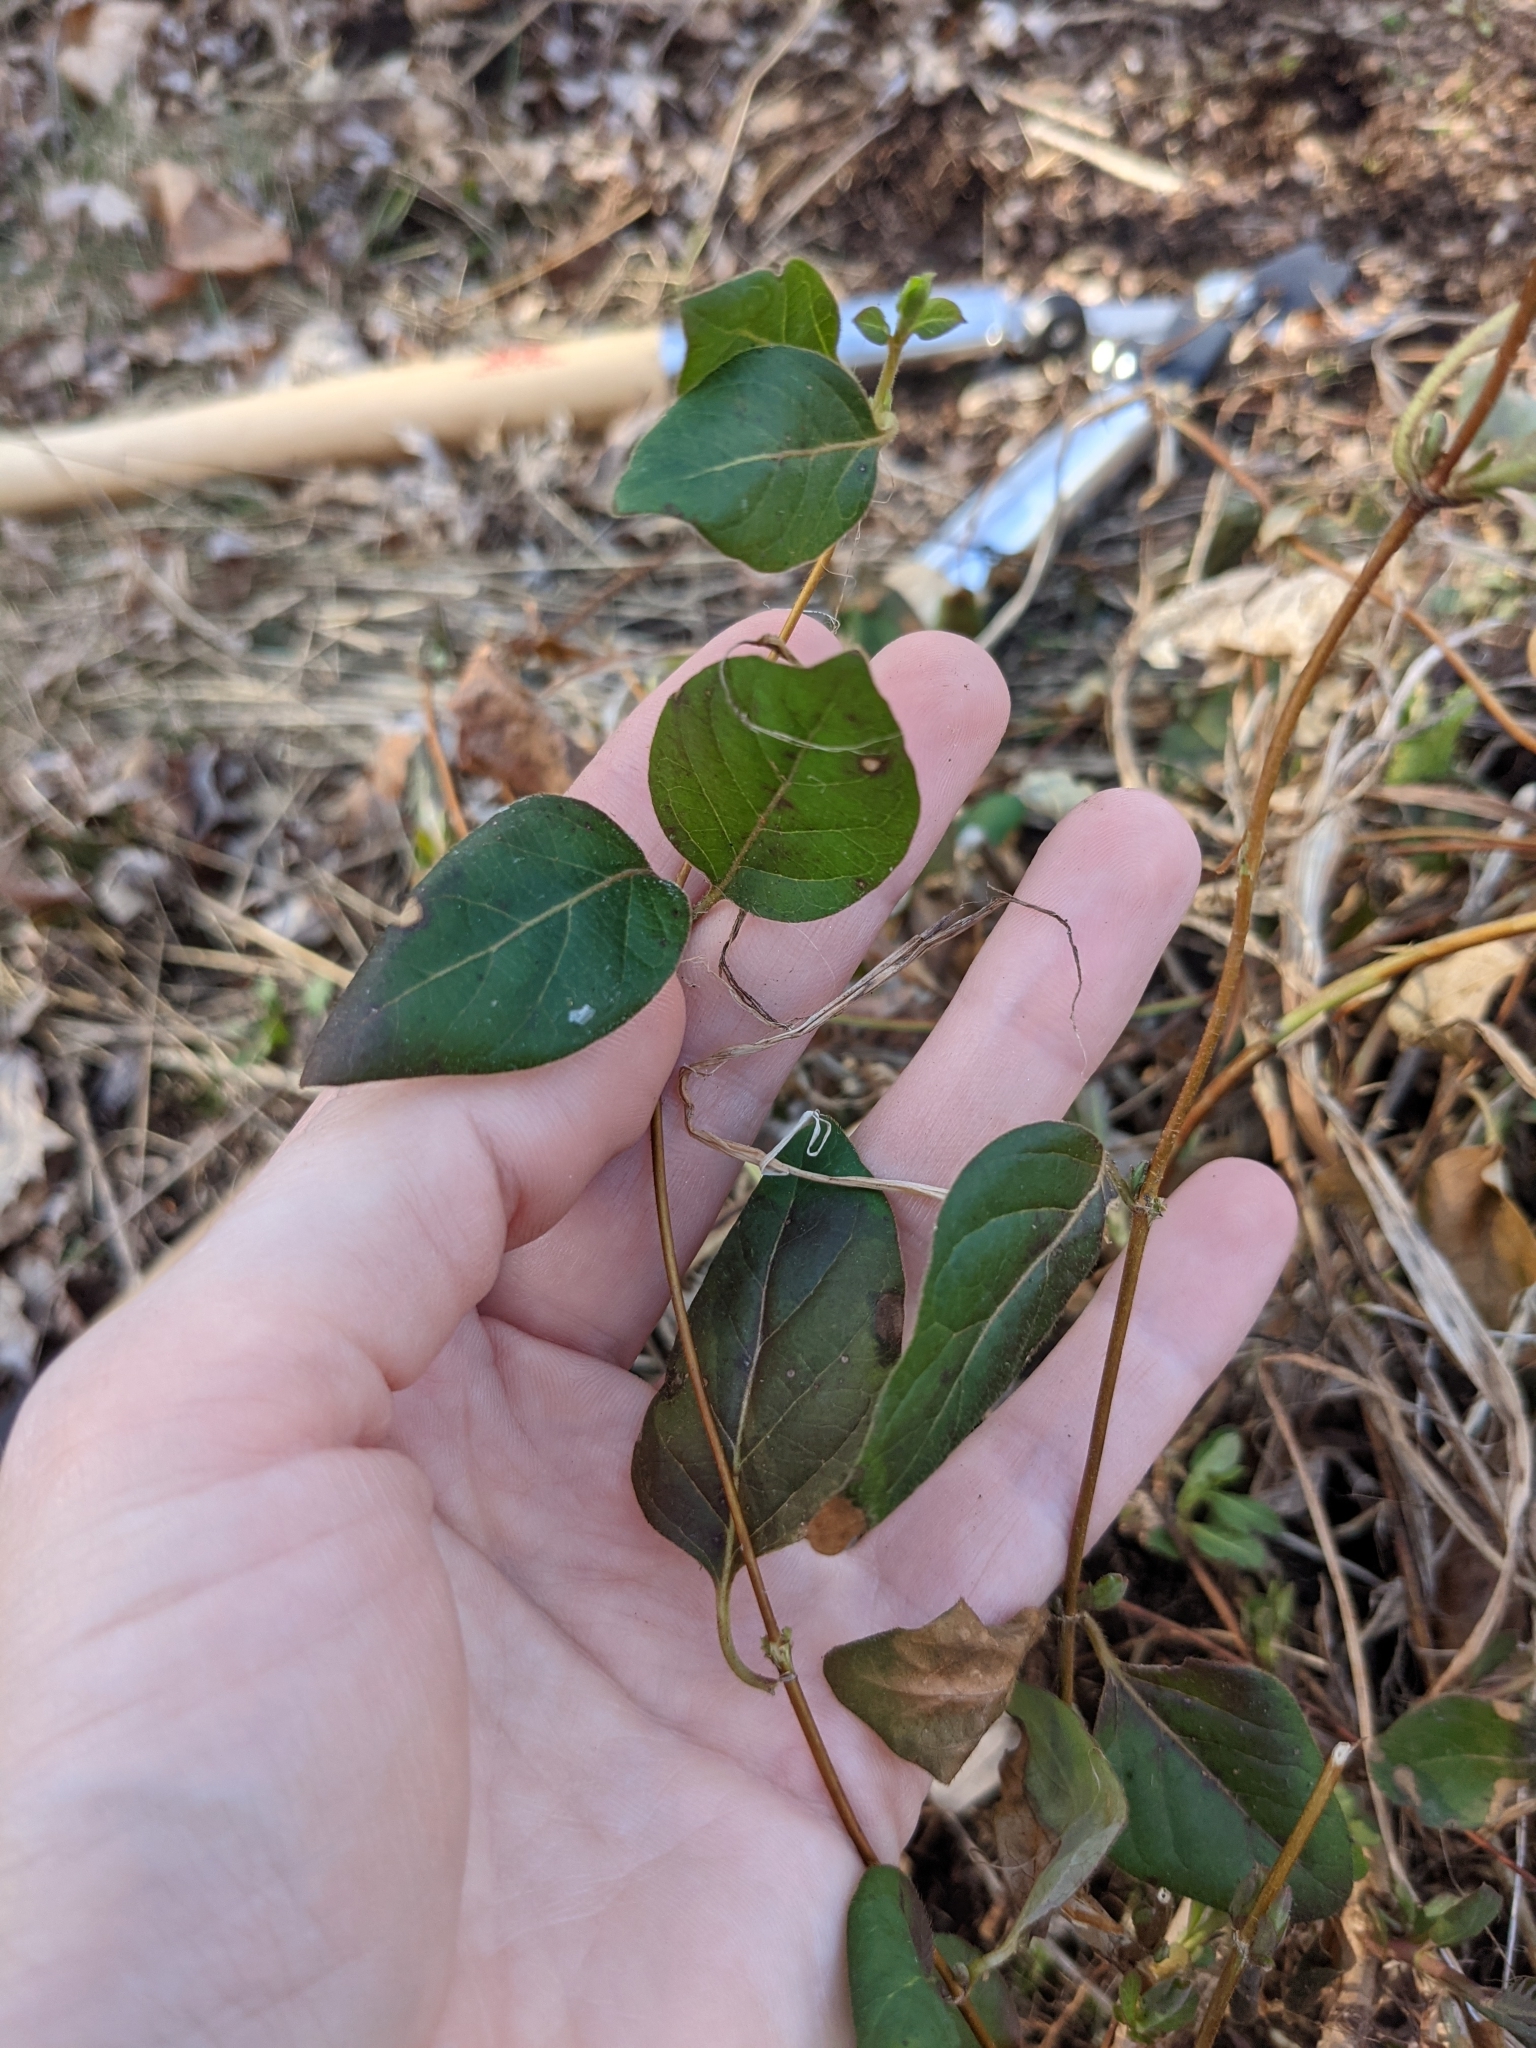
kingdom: Plantae
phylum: Tracheophyta
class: Magnoliopsida
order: Dipsacales
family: Caprifoliaceae
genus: Lonicera
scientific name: Lonicera japonica
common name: Japanese honeysuckle
